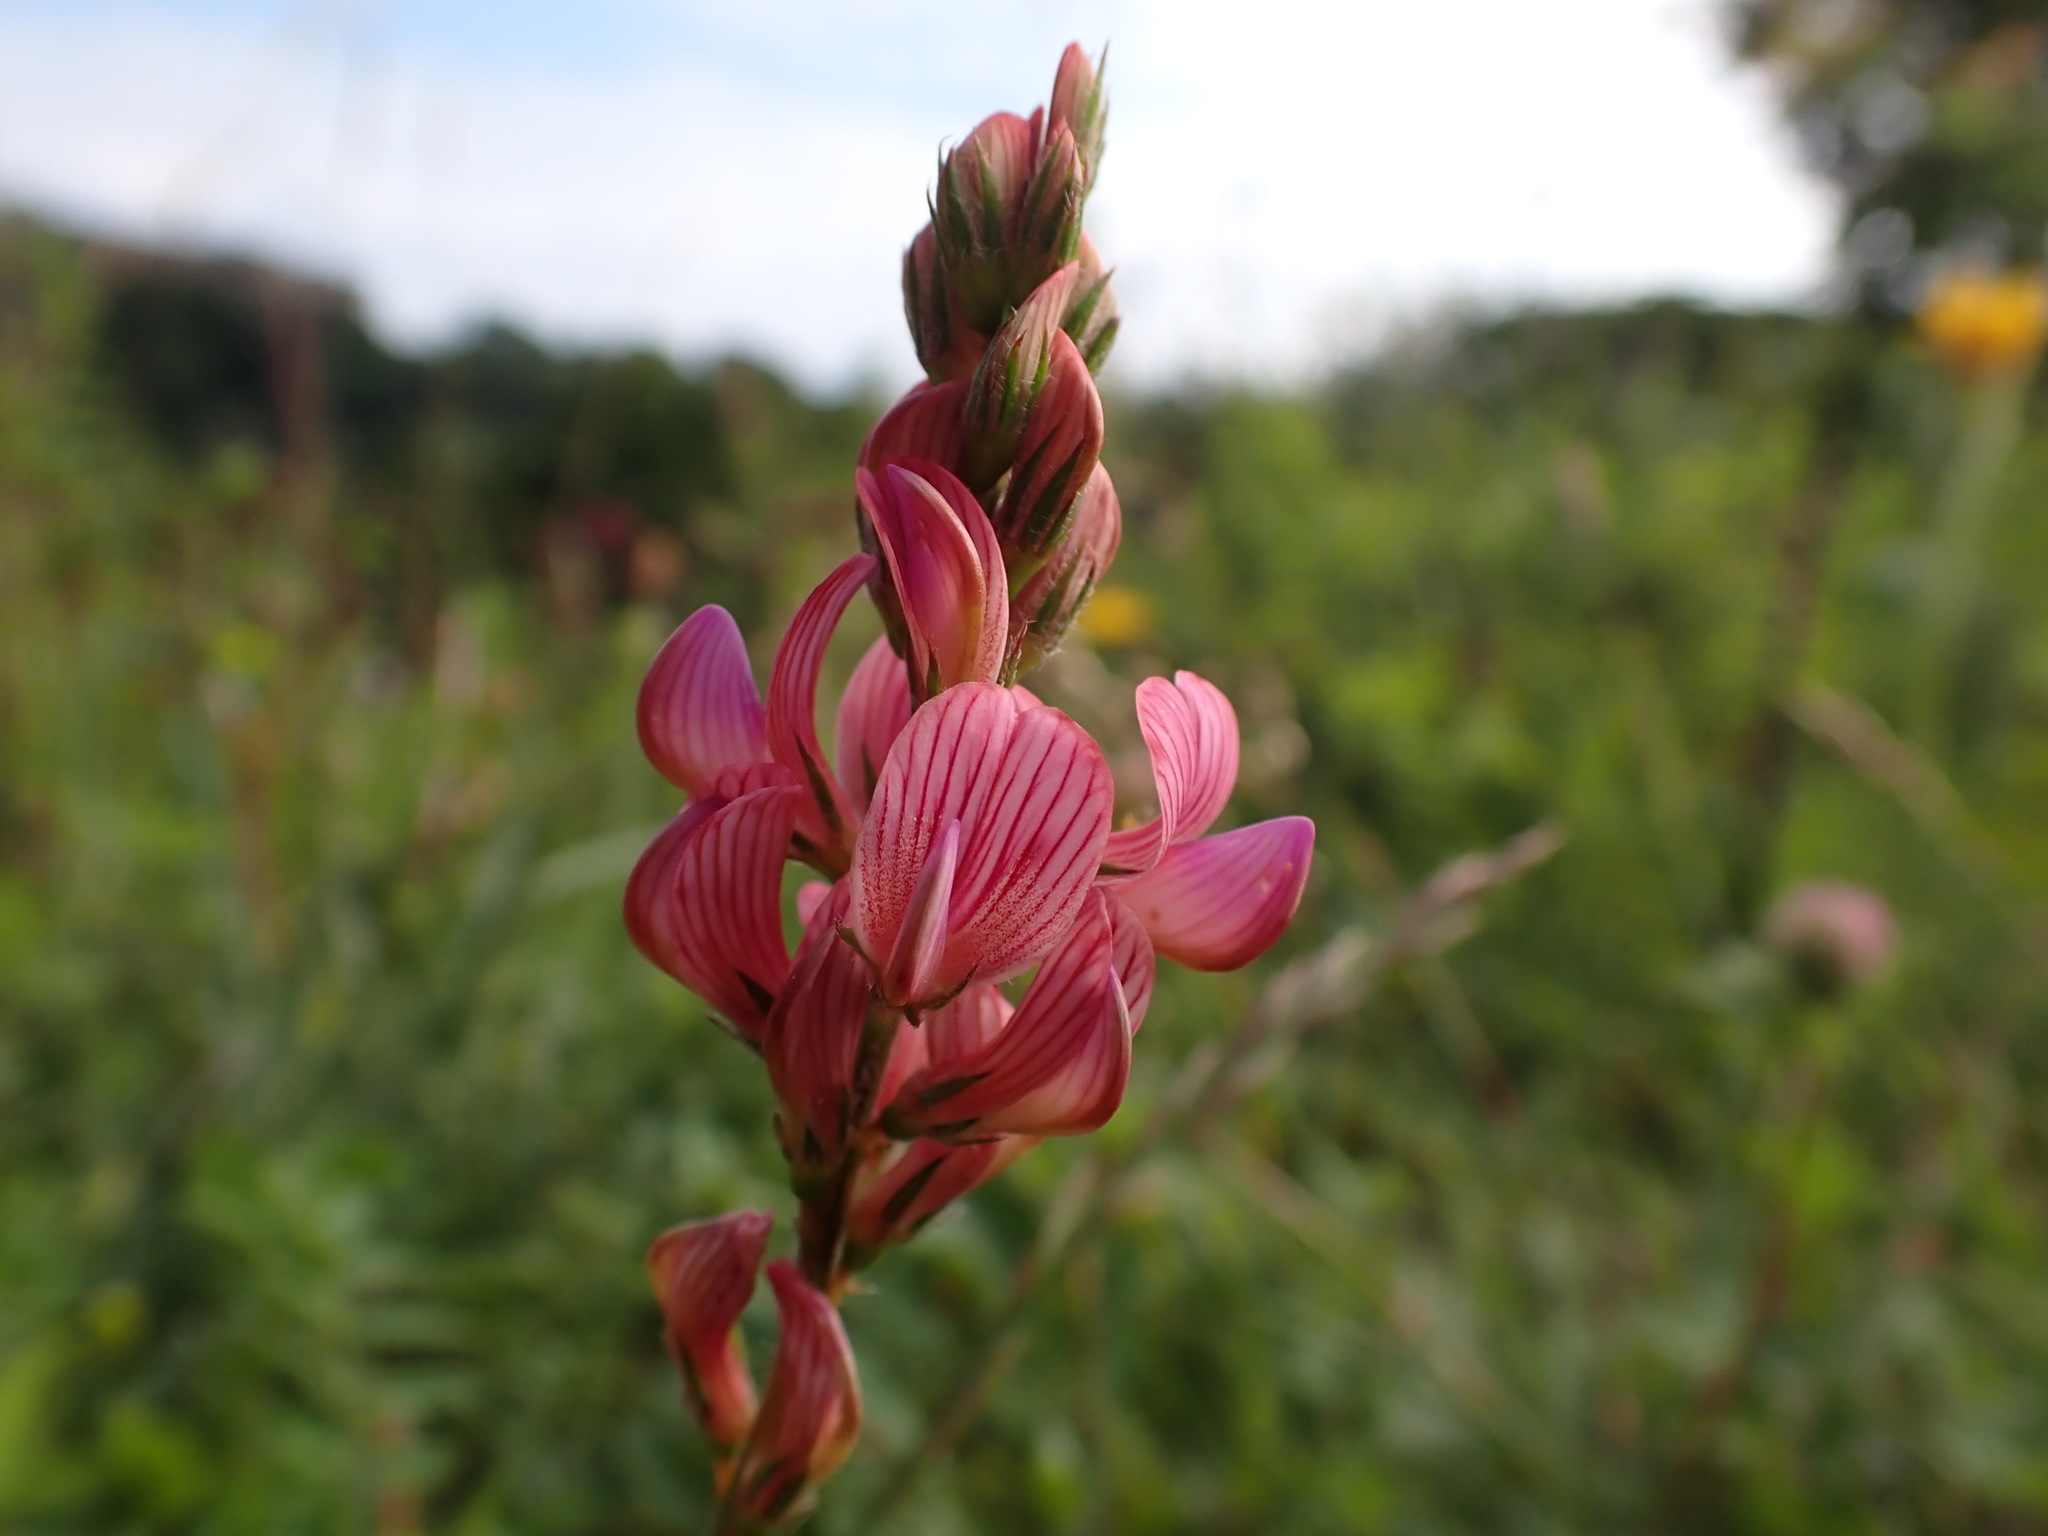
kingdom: Plantae
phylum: Tracheophyta
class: Magnoliopsida
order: Fabales
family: Fabaceae
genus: Onobrychis
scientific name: Onobrychis viciifolia
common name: Sainfoin
